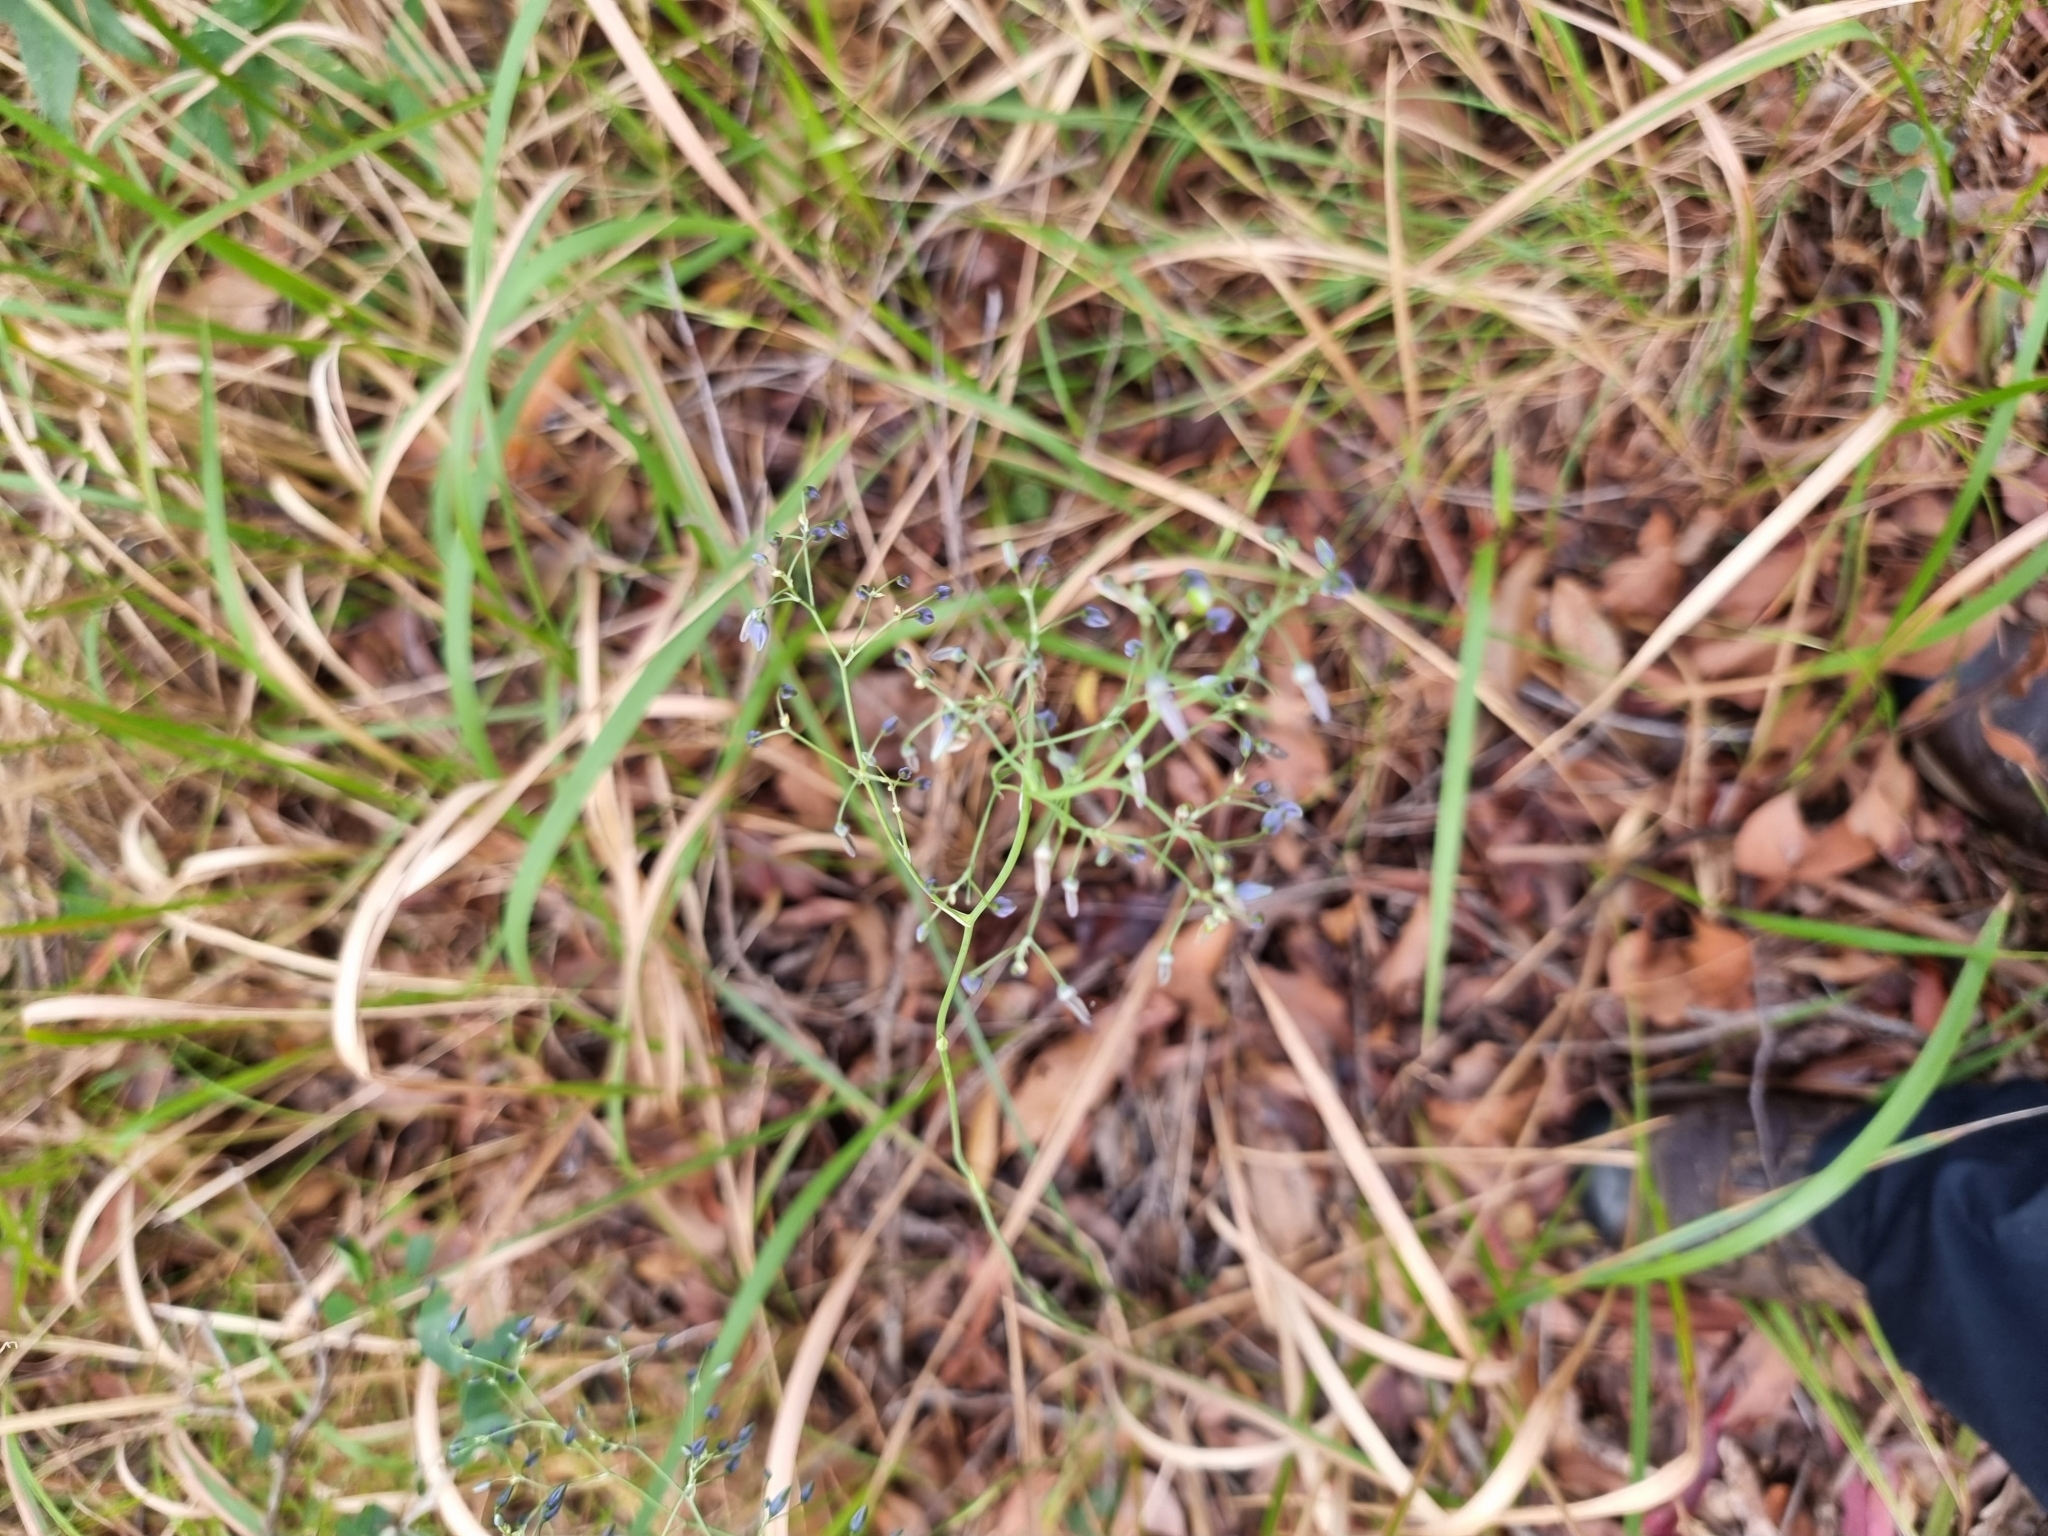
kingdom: Plantae
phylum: Tracheophyta
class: Liliopsida
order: Asparagales
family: Asphodelaceae
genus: Dianella
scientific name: Dianella longifolia
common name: Blue flax-lily
